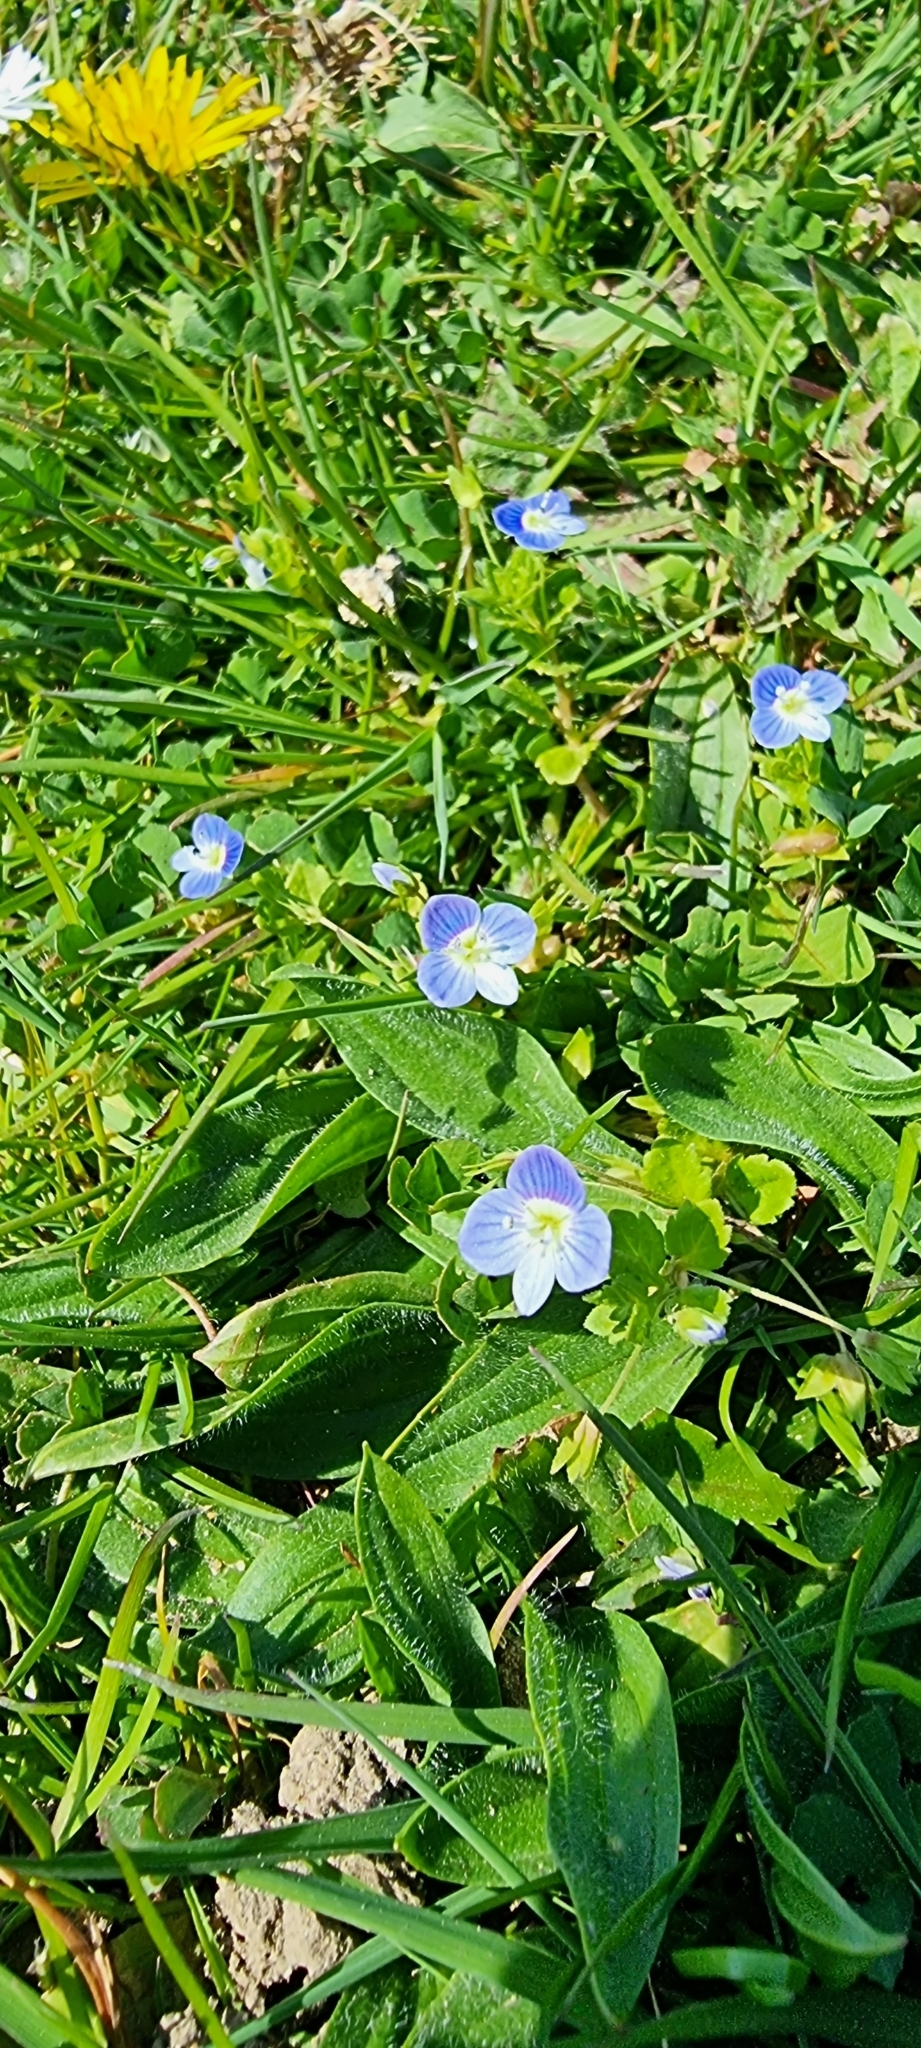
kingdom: Plantae
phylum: Tracheophyta
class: Magnoliopsida
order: Lamiales
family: Plantaginaceae
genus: Veronica
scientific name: Veronica persica
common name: Common field-speedwell
